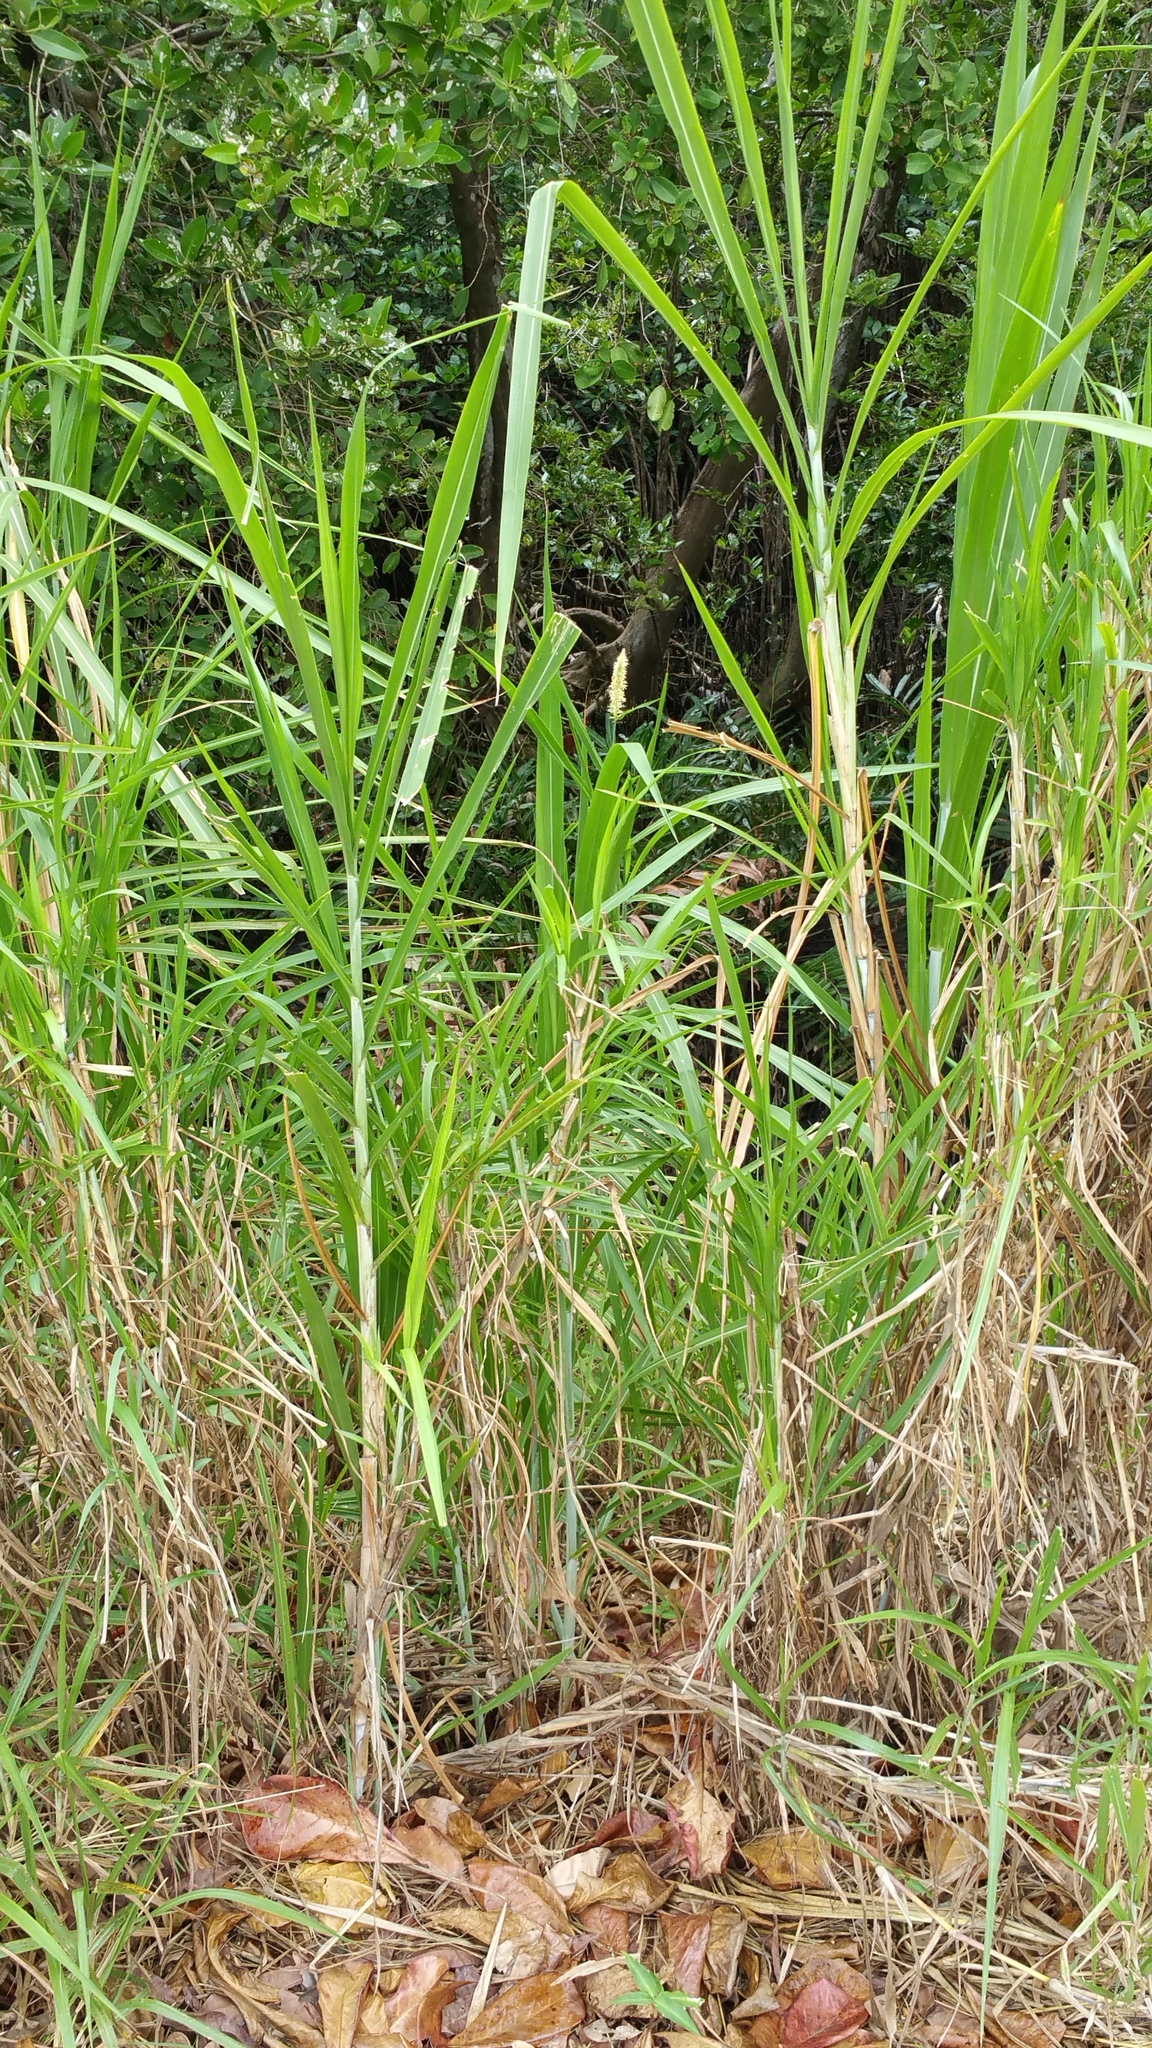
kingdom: Plantae
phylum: Tracheophyta
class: Liliopsida
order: Poales
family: Poaceae
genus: Cenchrus
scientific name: Cenchrus purpureus
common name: Elephant grass
